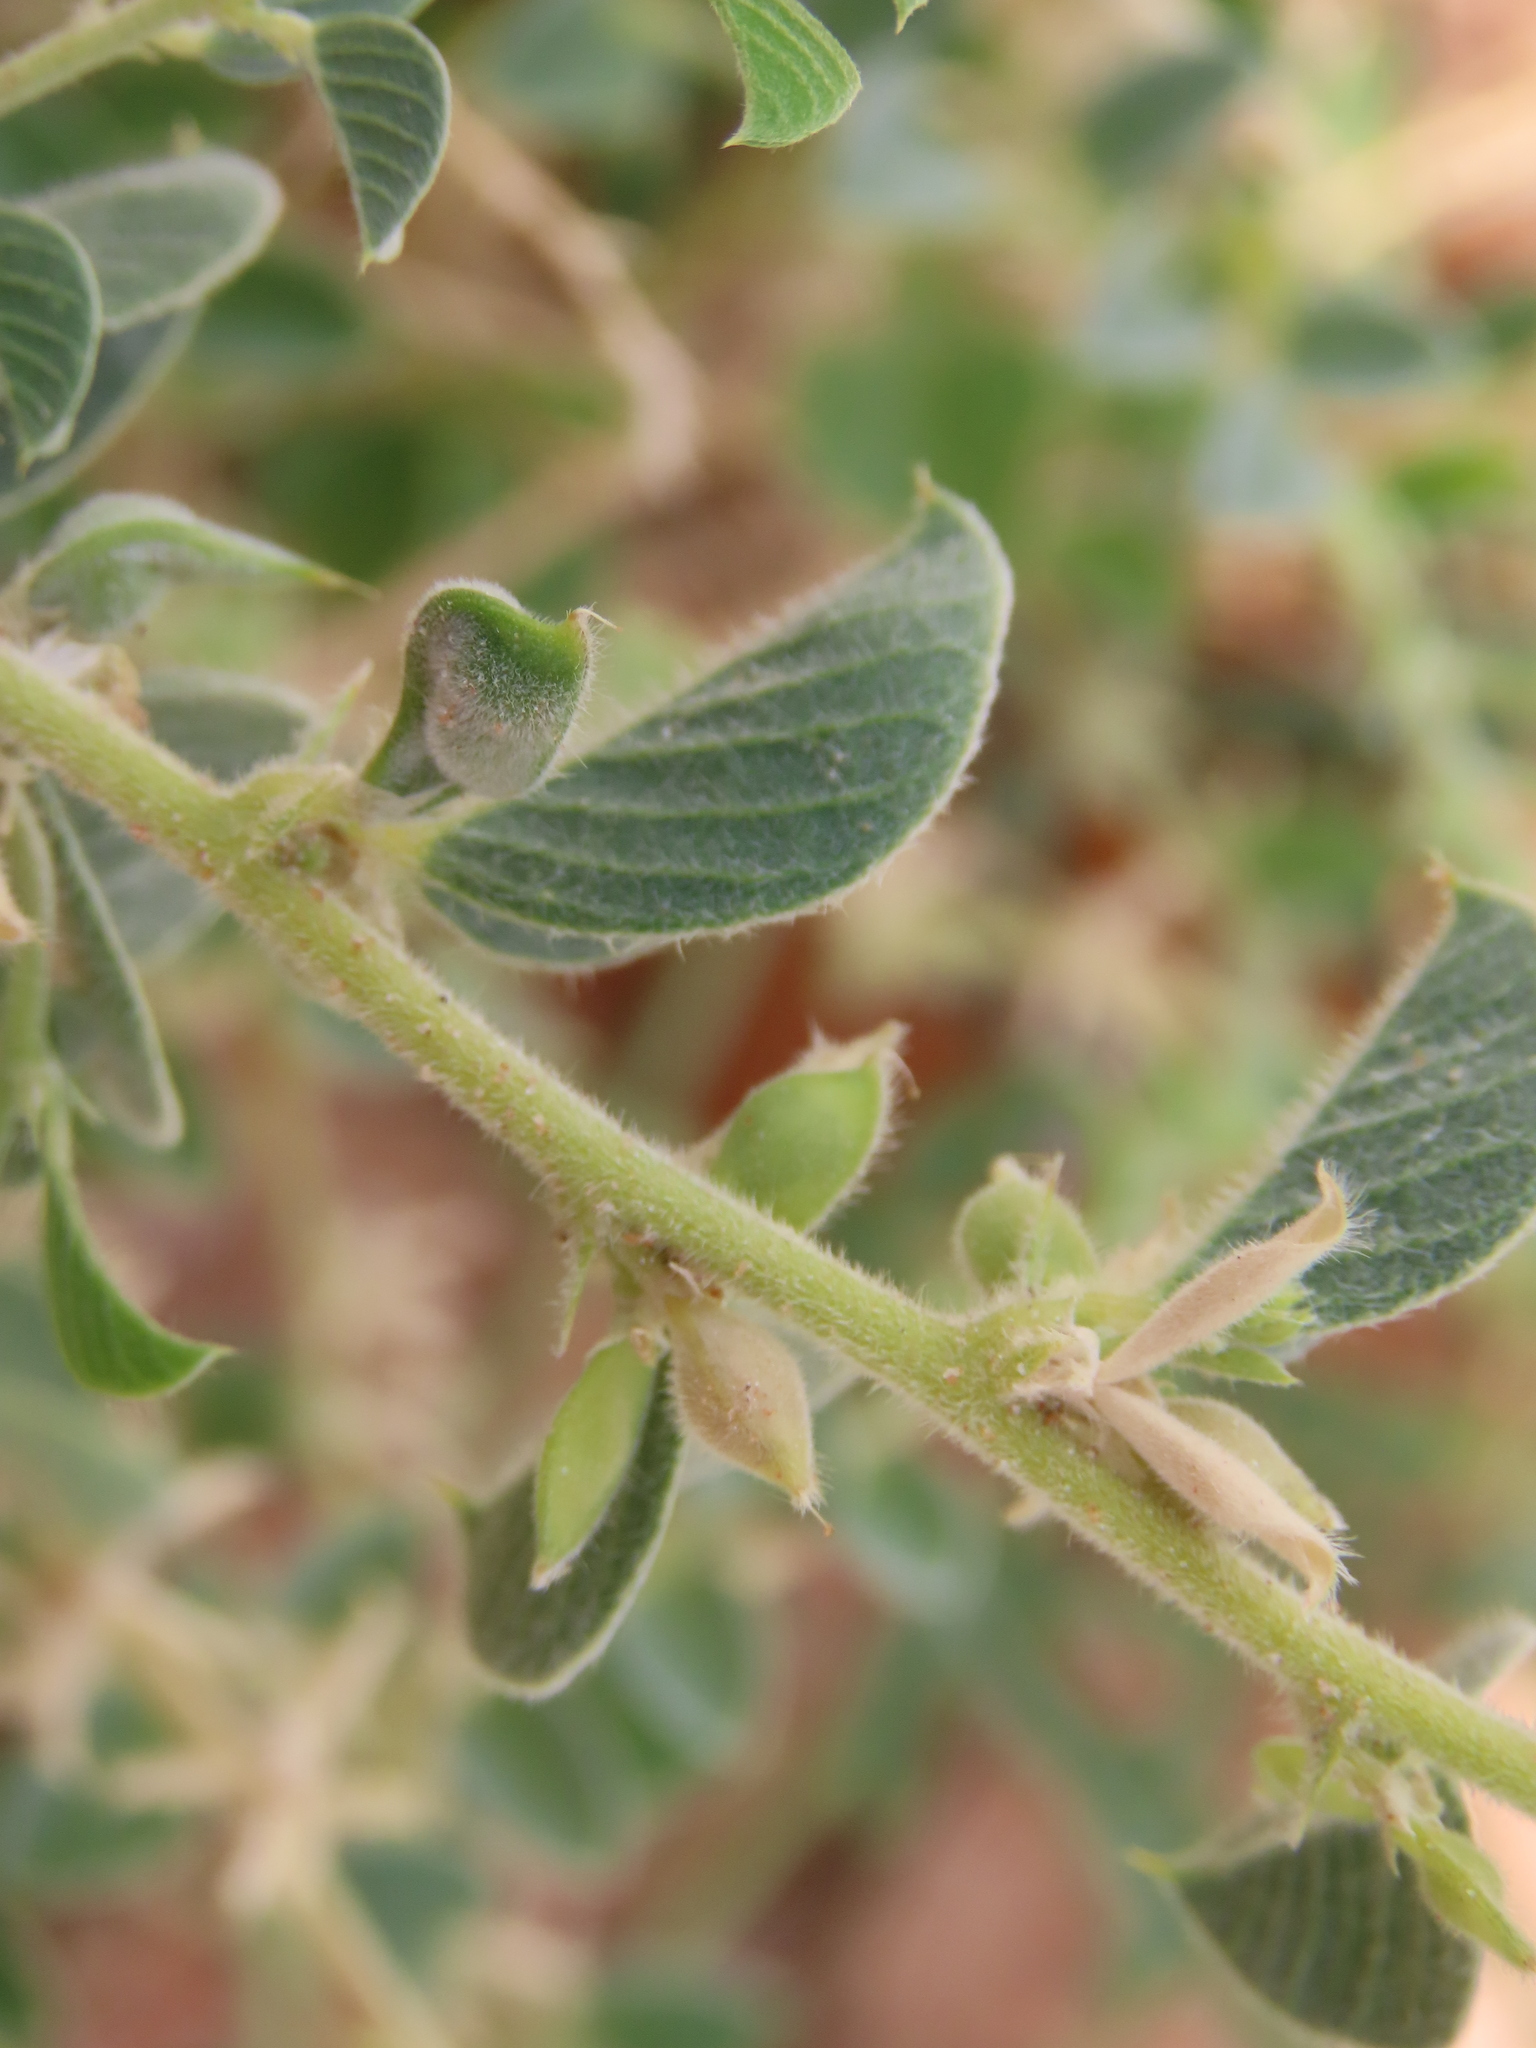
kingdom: Plantae
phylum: Tracheophyta
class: Magnoliopsida
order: Fabales
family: Fabaceae
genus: Requienia
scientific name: Requienia sphaerosperma
